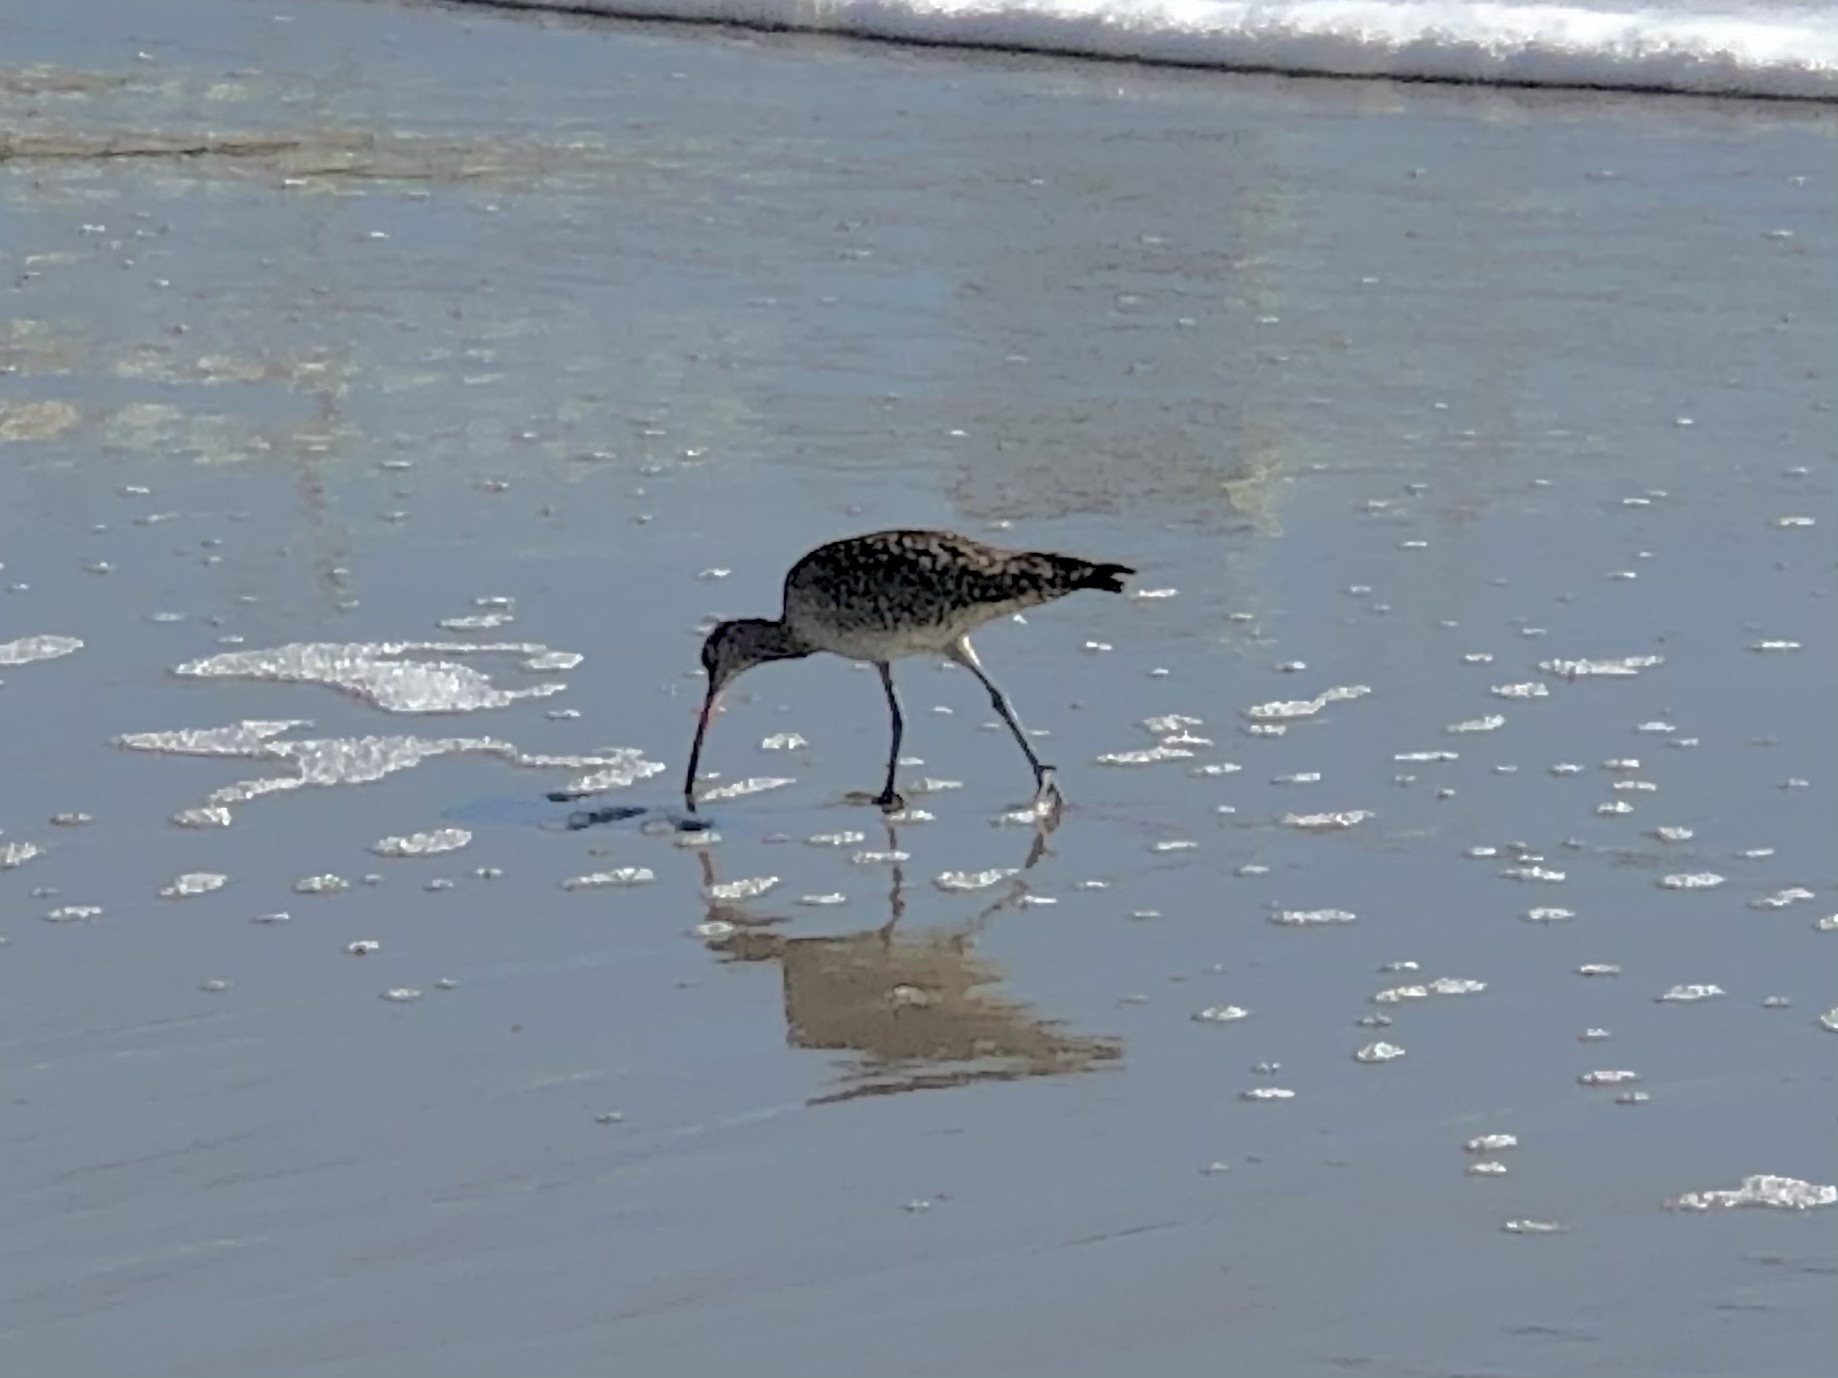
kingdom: Animalia
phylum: Chordata
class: Aves
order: Charadriiformes
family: Scolopacidae
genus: Numenius
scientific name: Numenius phaeopus
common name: Whimbrel
